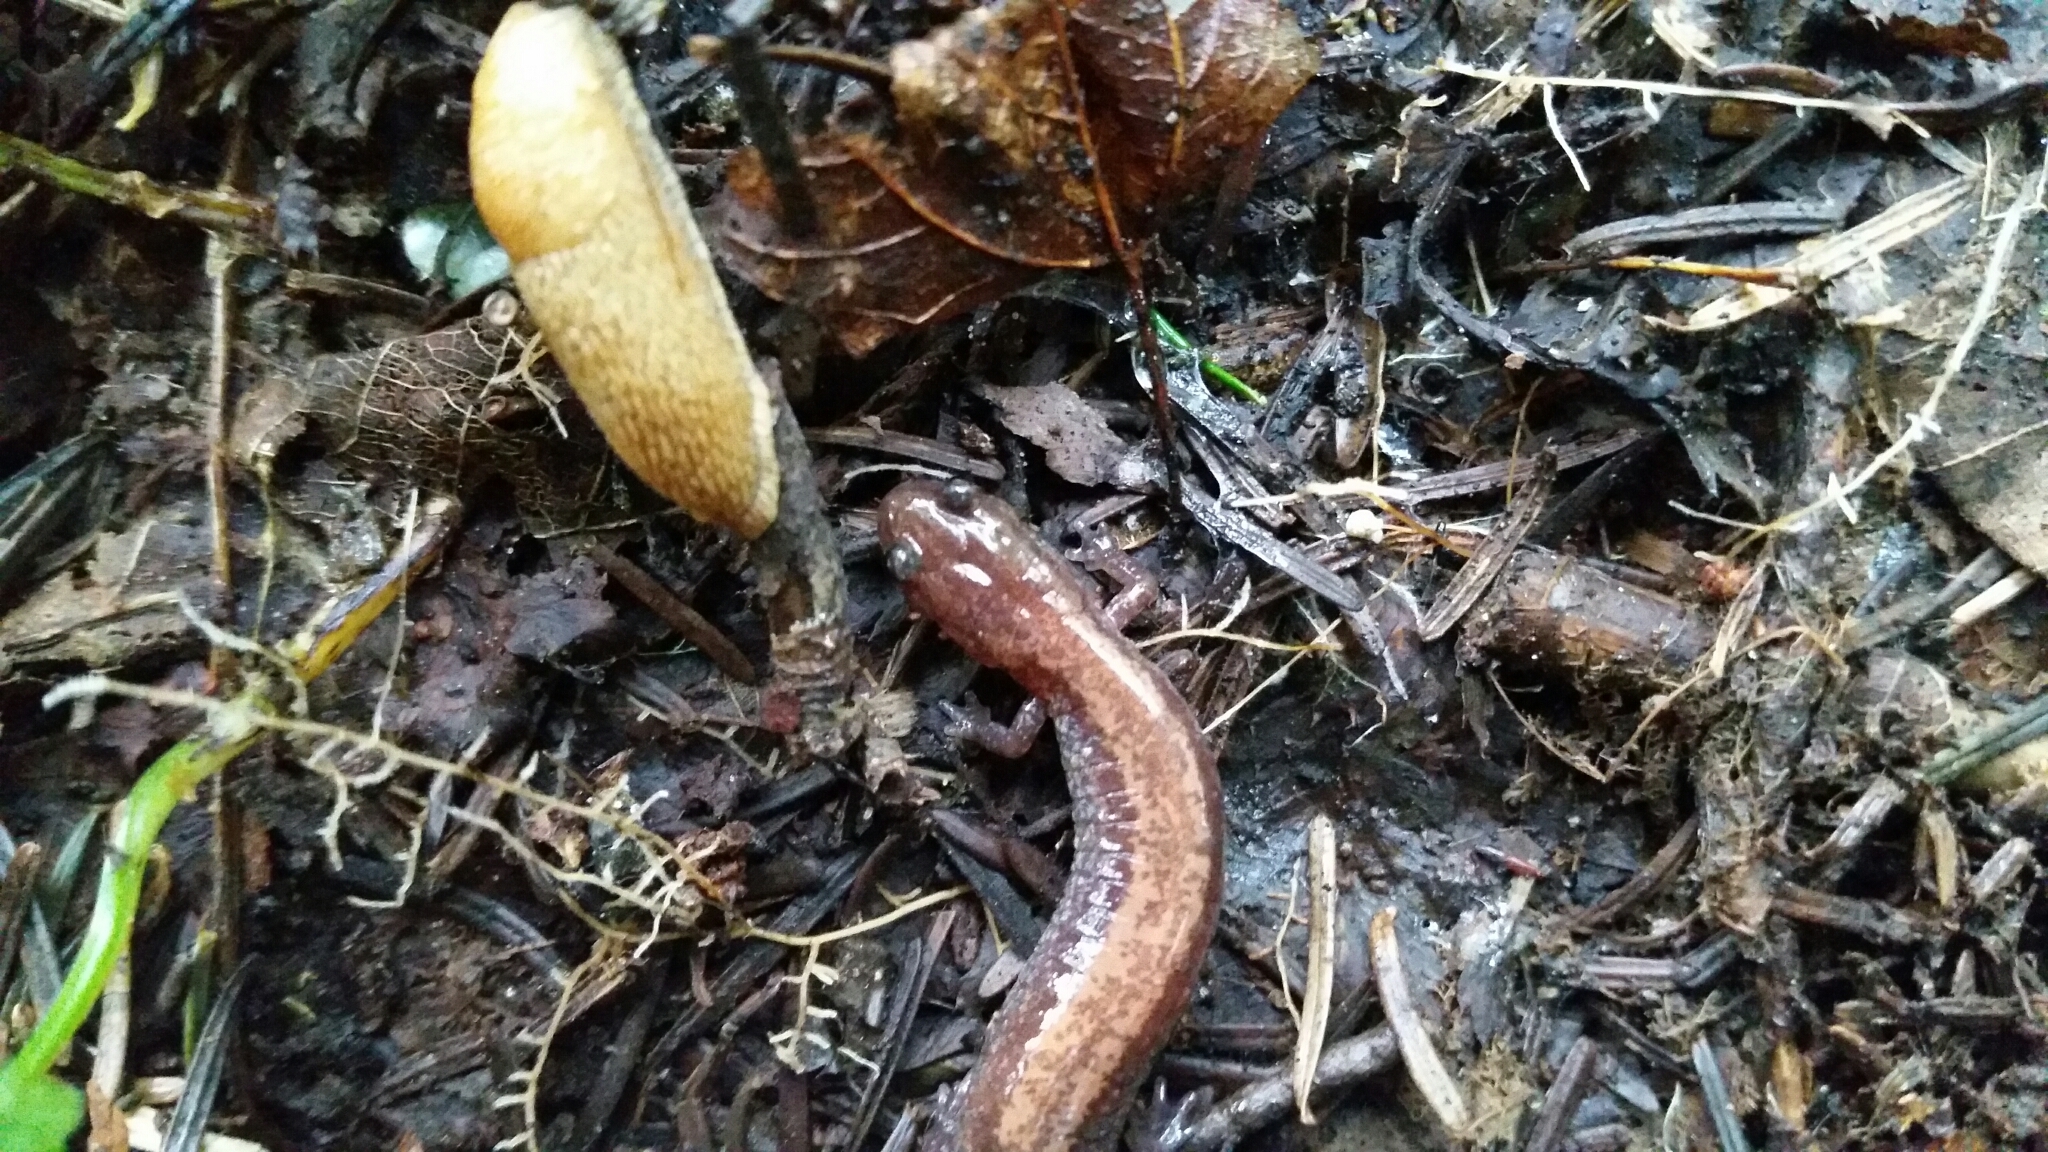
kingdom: Animalia
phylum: Chordata
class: Amphibia
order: Caudata
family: Plethodontidae
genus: Plethodon
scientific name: Plethodon cinereus
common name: Redback salamander
